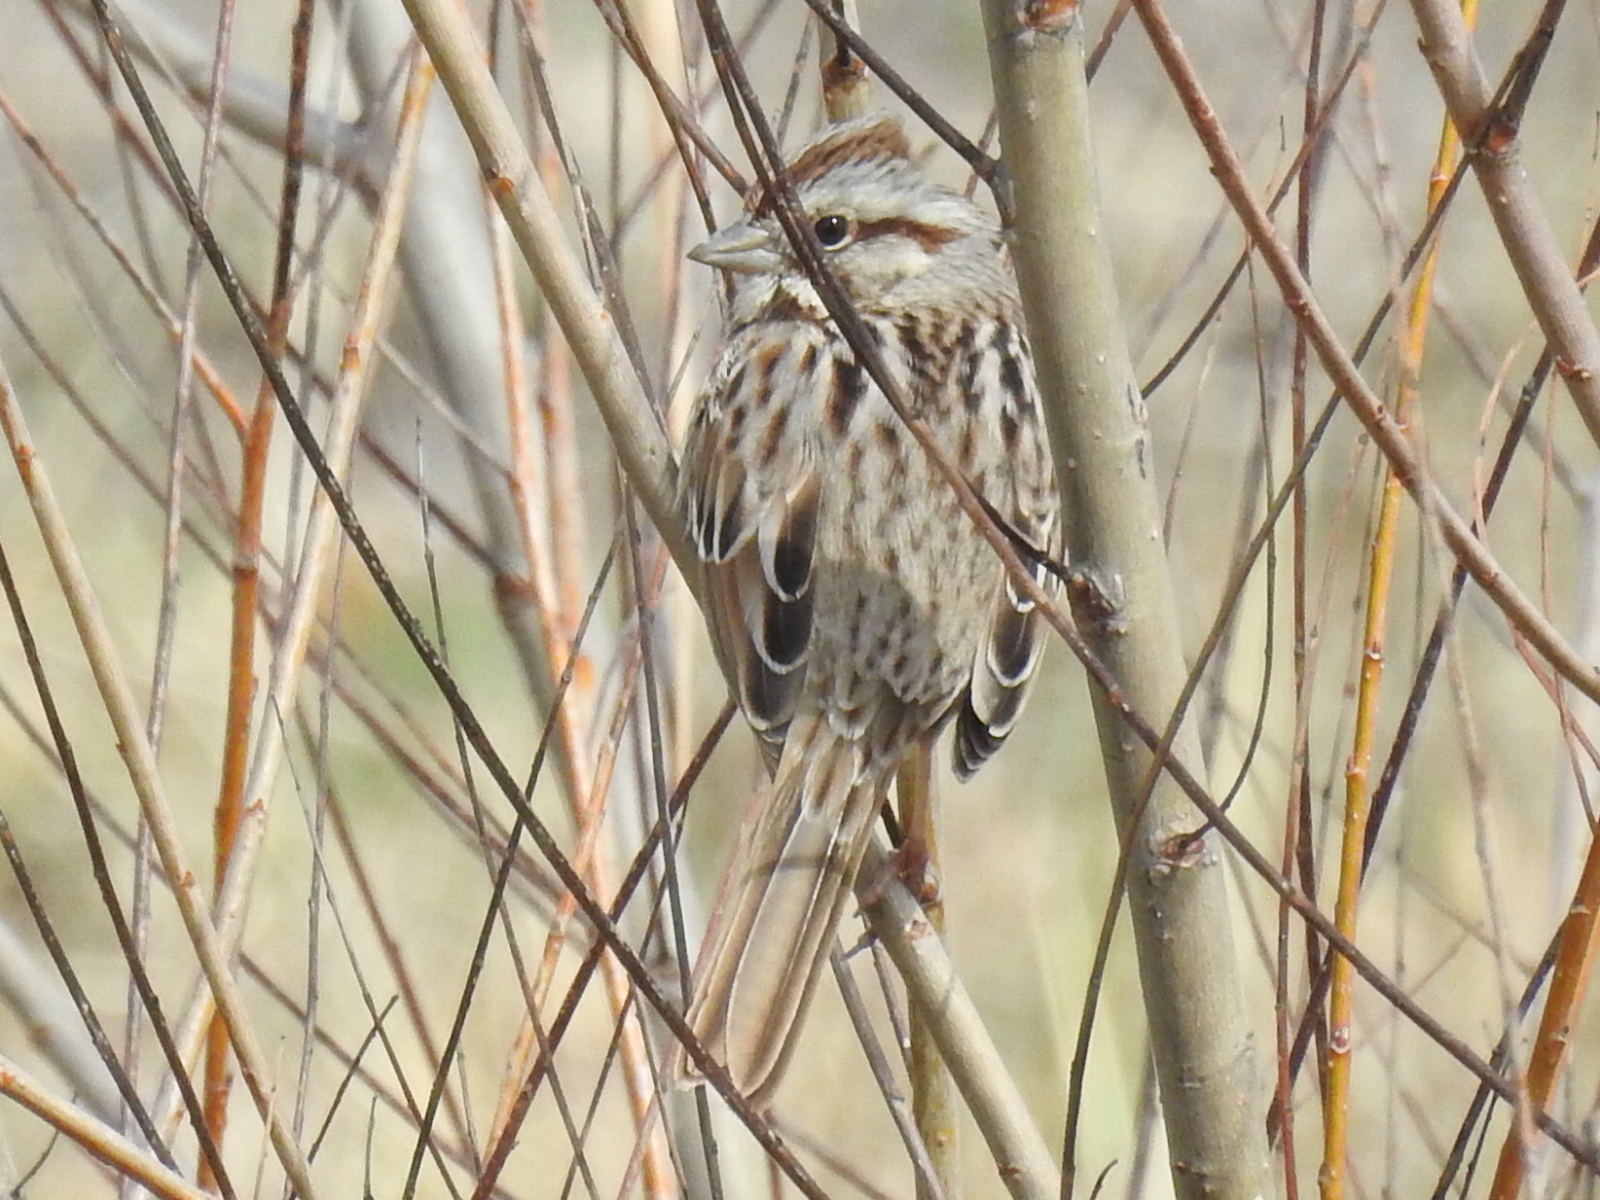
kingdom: Animalia
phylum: Chordata
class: Aves
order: Passeriformes
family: Passerellidae
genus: Melospiza
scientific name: Melospiza melodia
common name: Song sparrow
